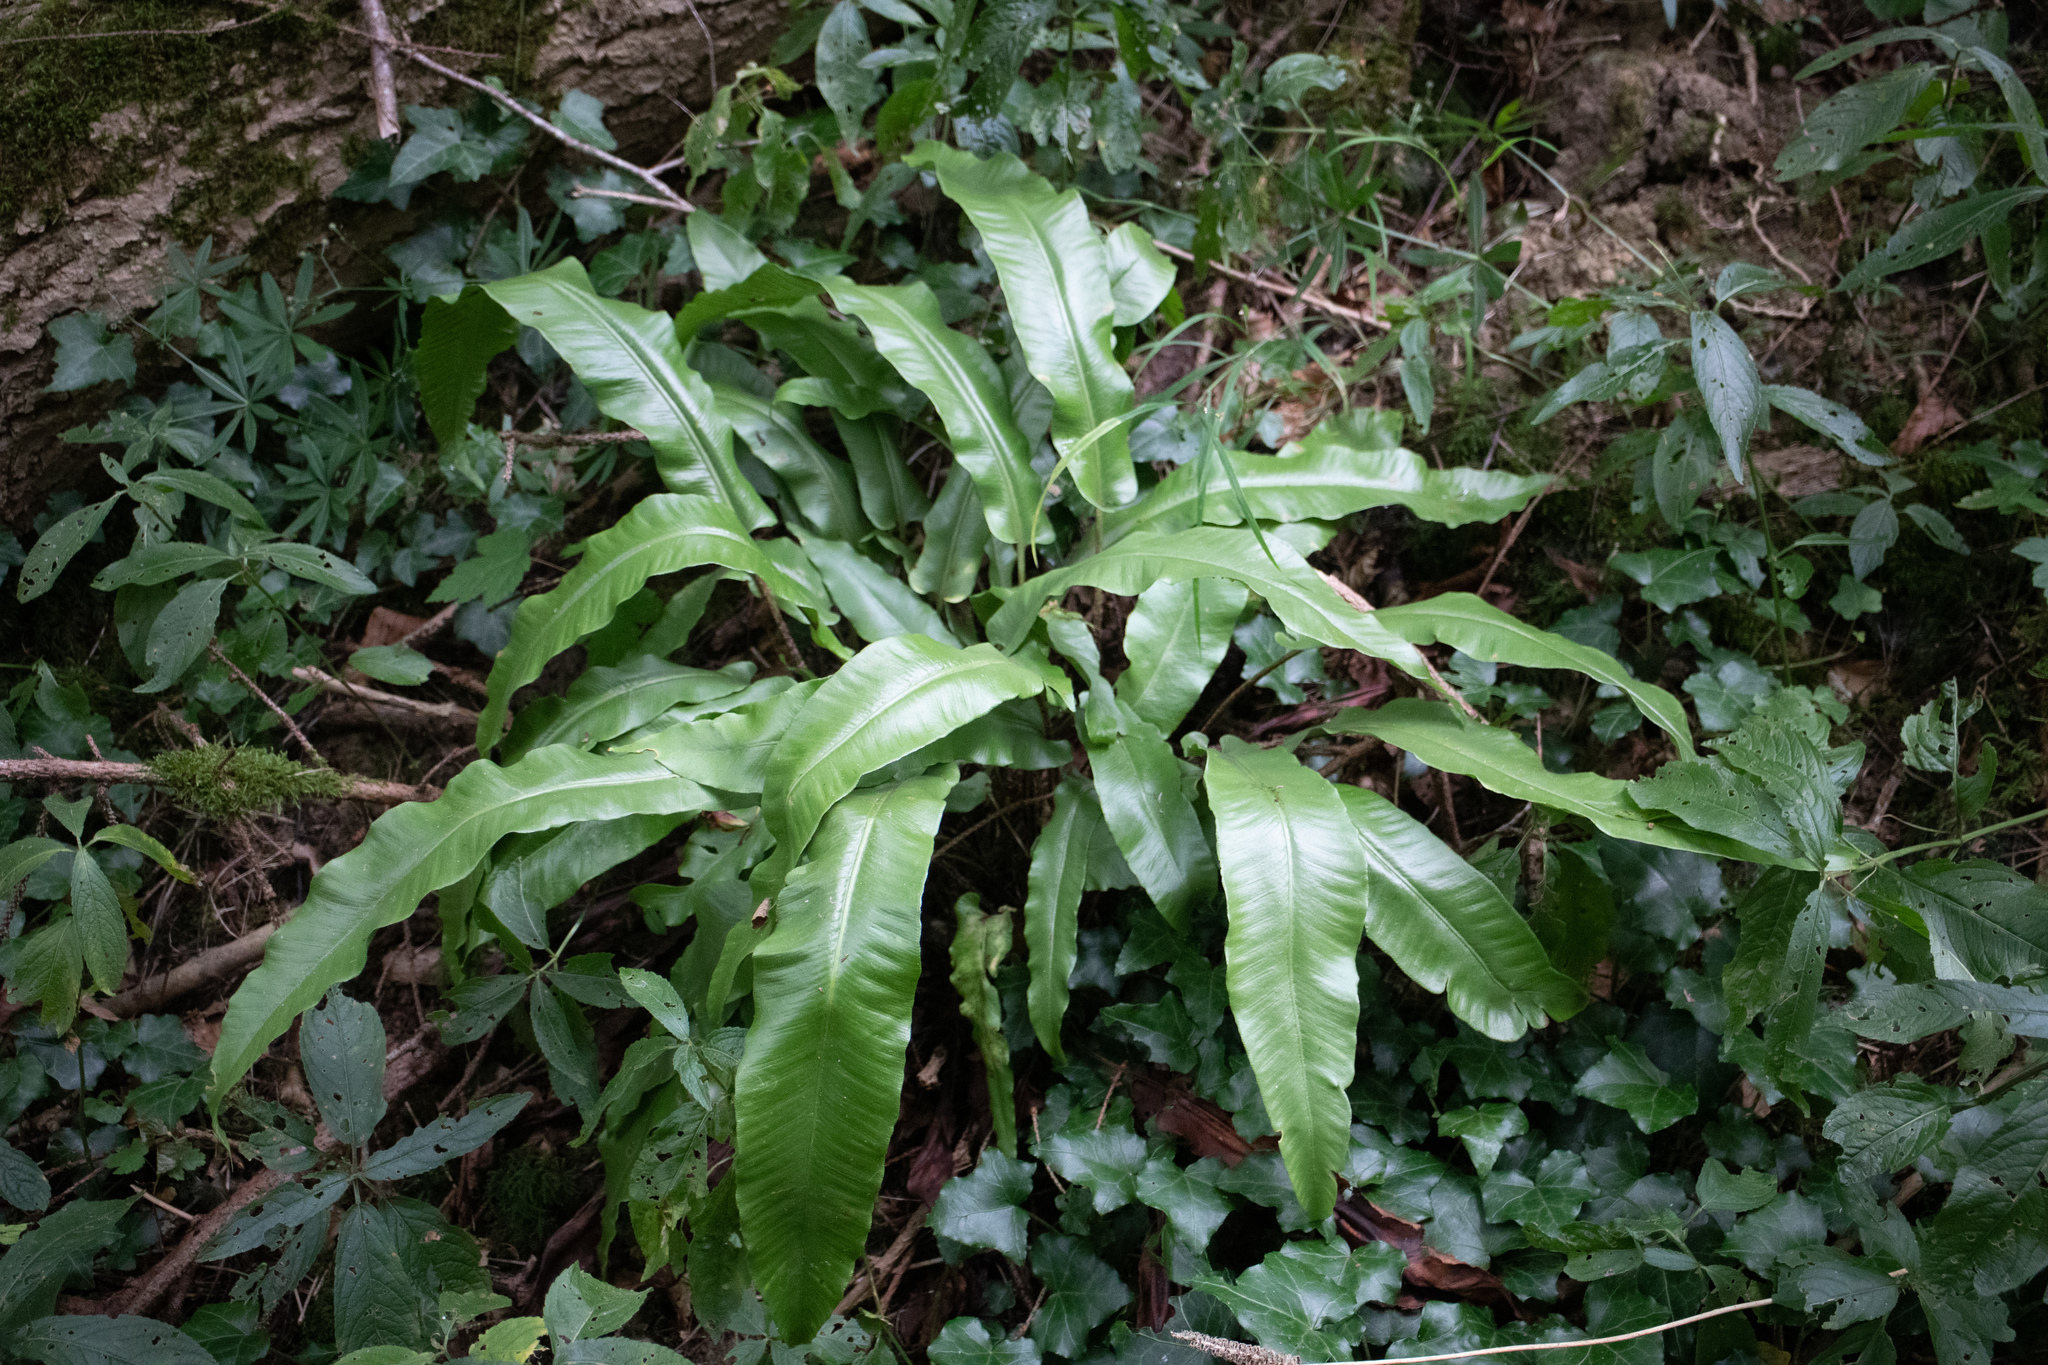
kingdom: Plantae
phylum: Tracheophyta
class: Polypodiopsida
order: Polypodiales
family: Aspleniaceae
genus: Asplenium
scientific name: Asplenium scolopendrium
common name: Hart's-tongue fern
